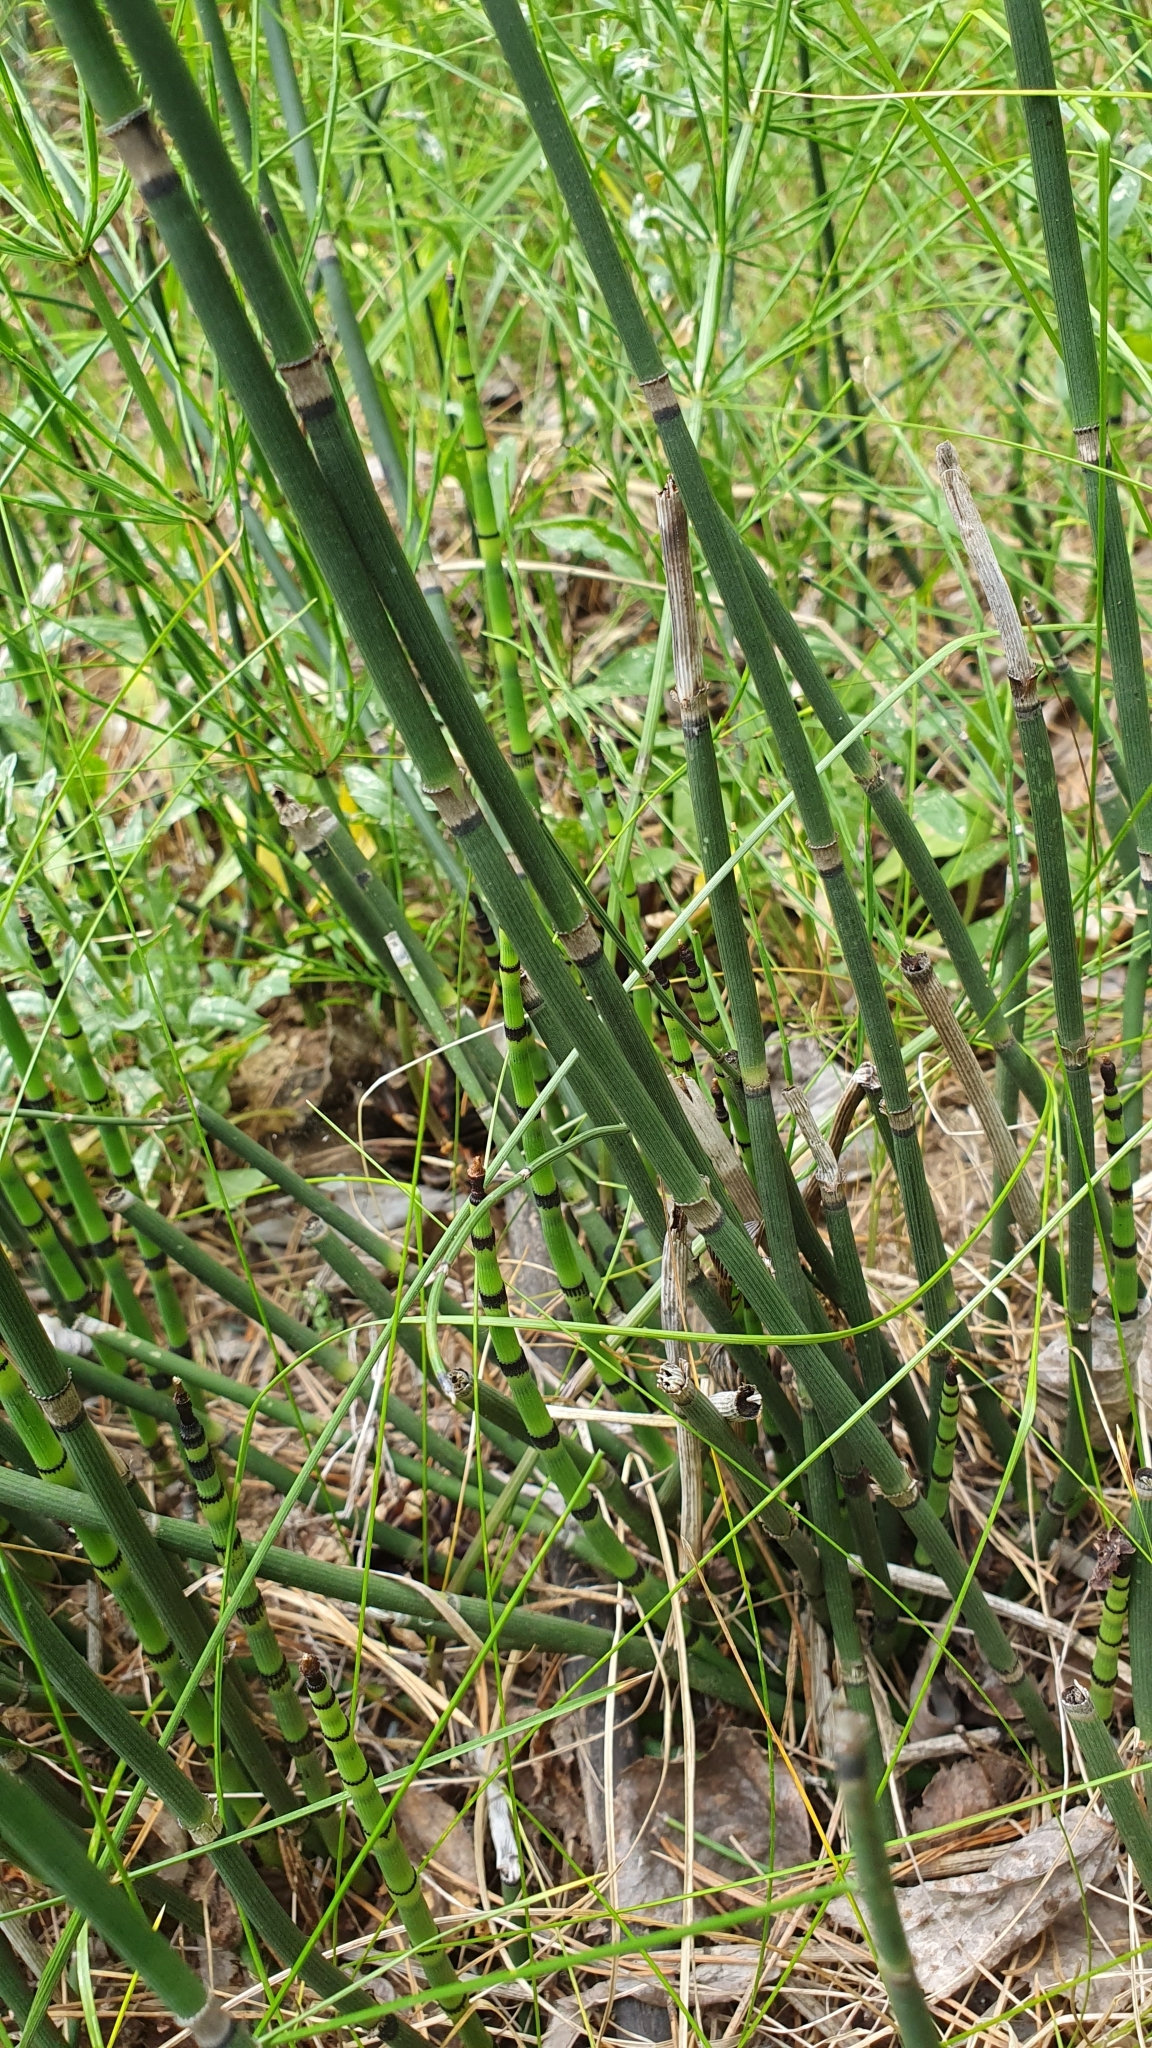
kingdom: Plantae
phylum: Tracheophyta
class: Polypodiopsida
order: Equisetales
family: Equisetaceae
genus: Equisetum
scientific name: Equisetum hyemale
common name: Rough horsetail
